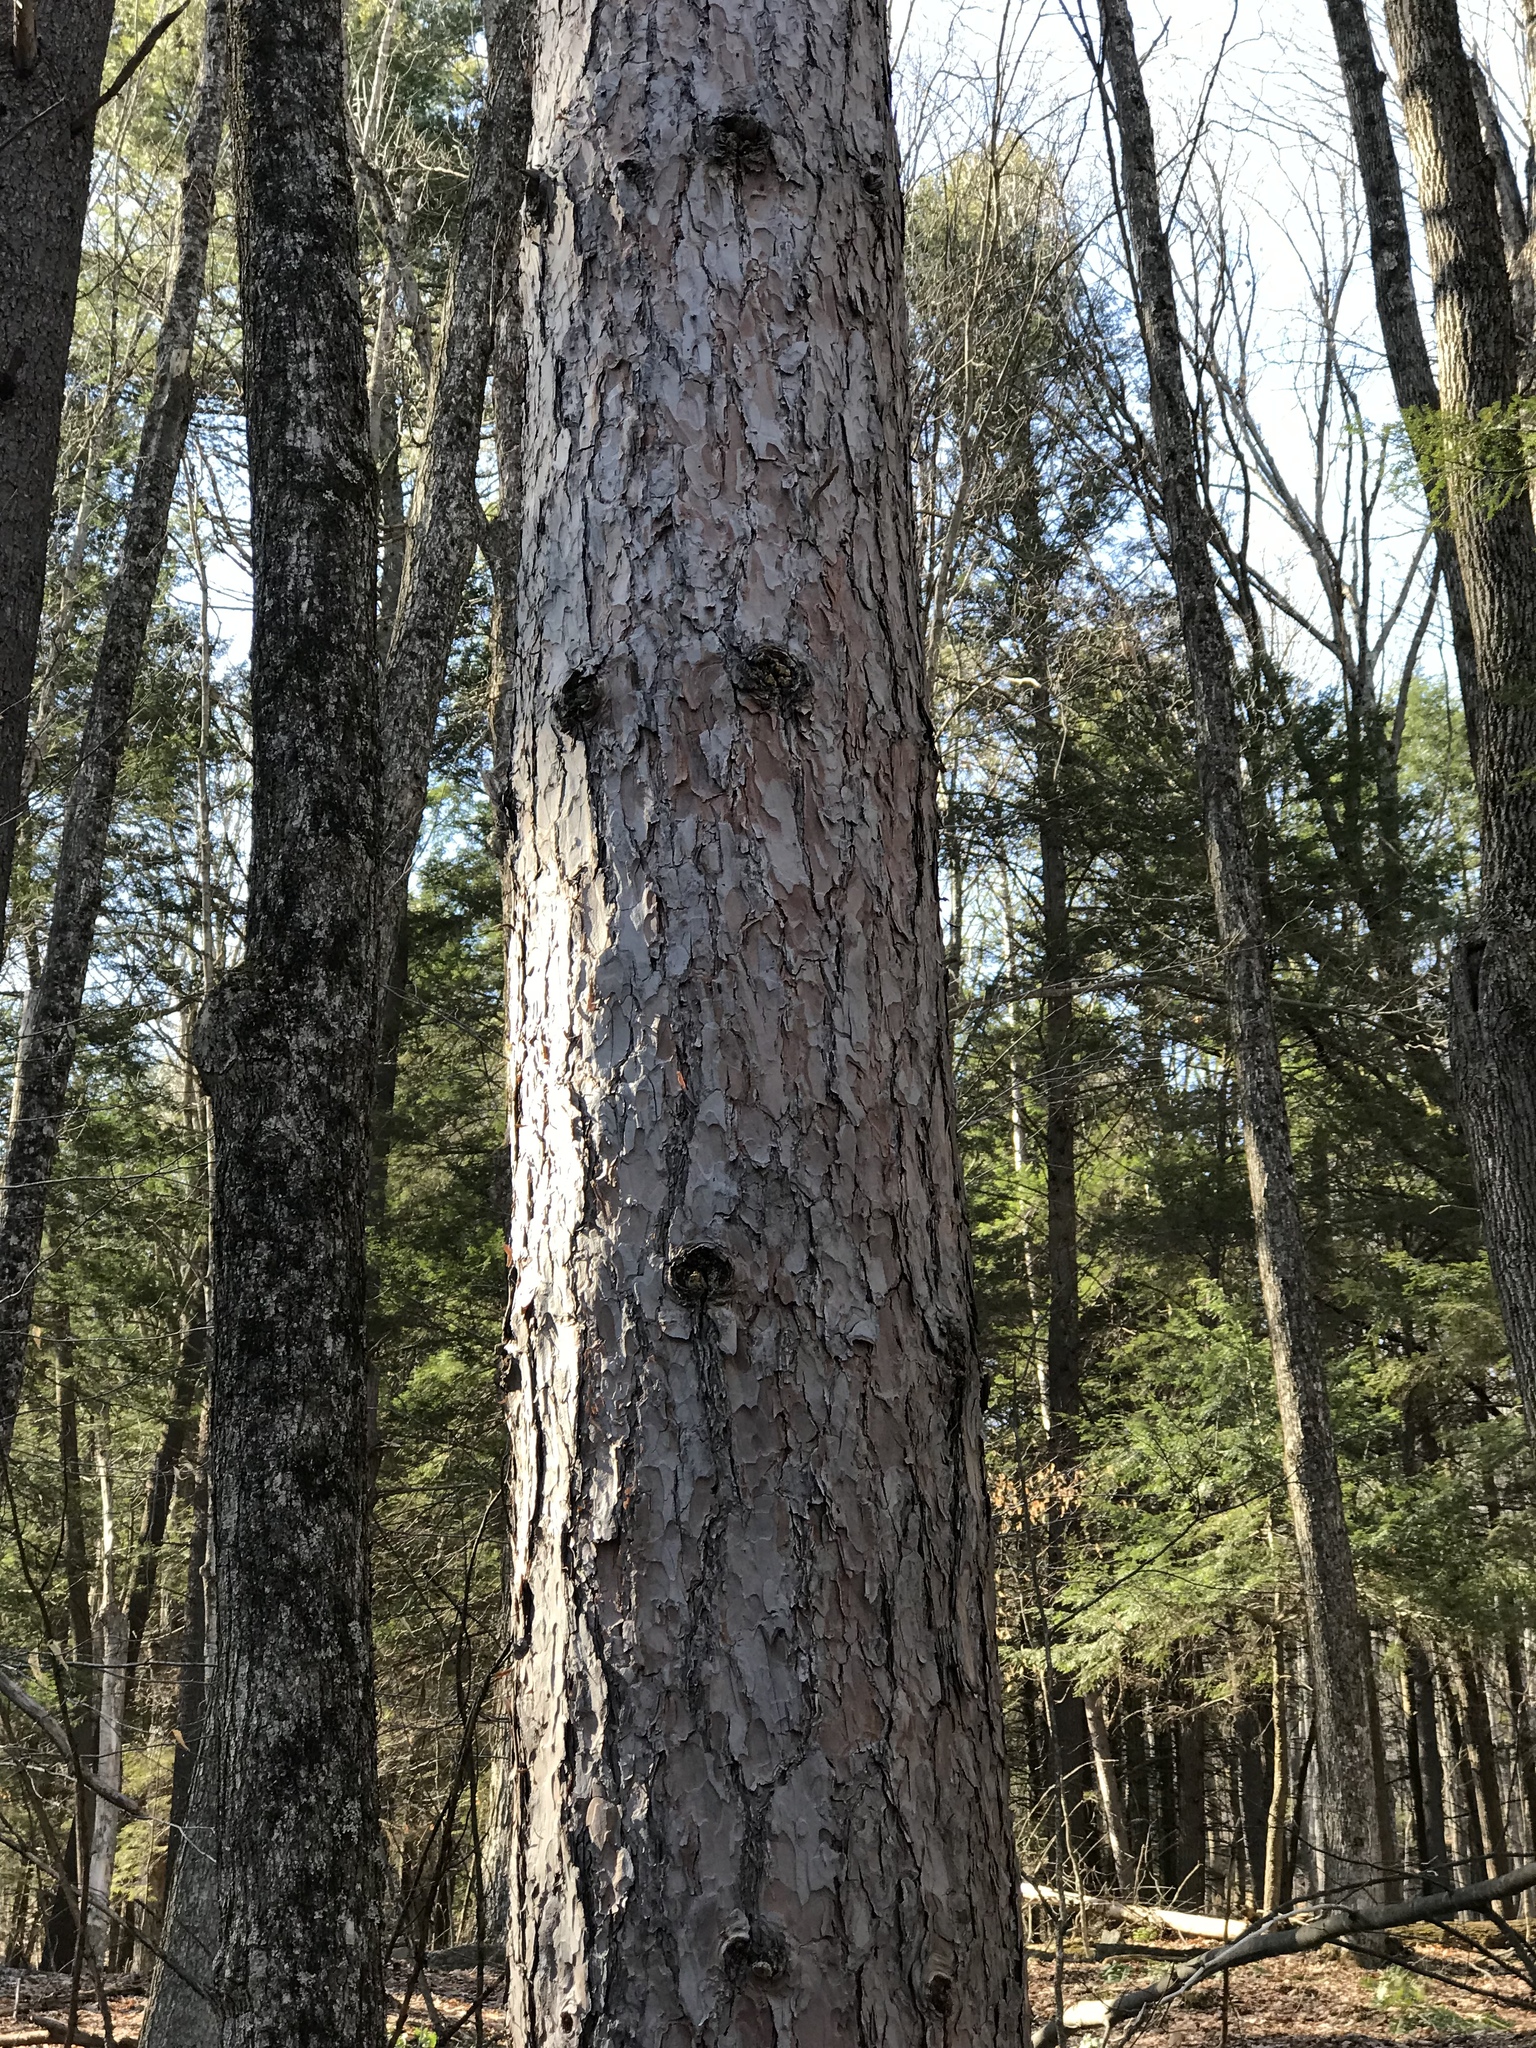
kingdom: Plantae
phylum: Tracheophyta
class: Pinopsida
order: Pinales
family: Pinaceae
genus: Pinus
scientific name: Pinus resinosa
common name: Norway pine
